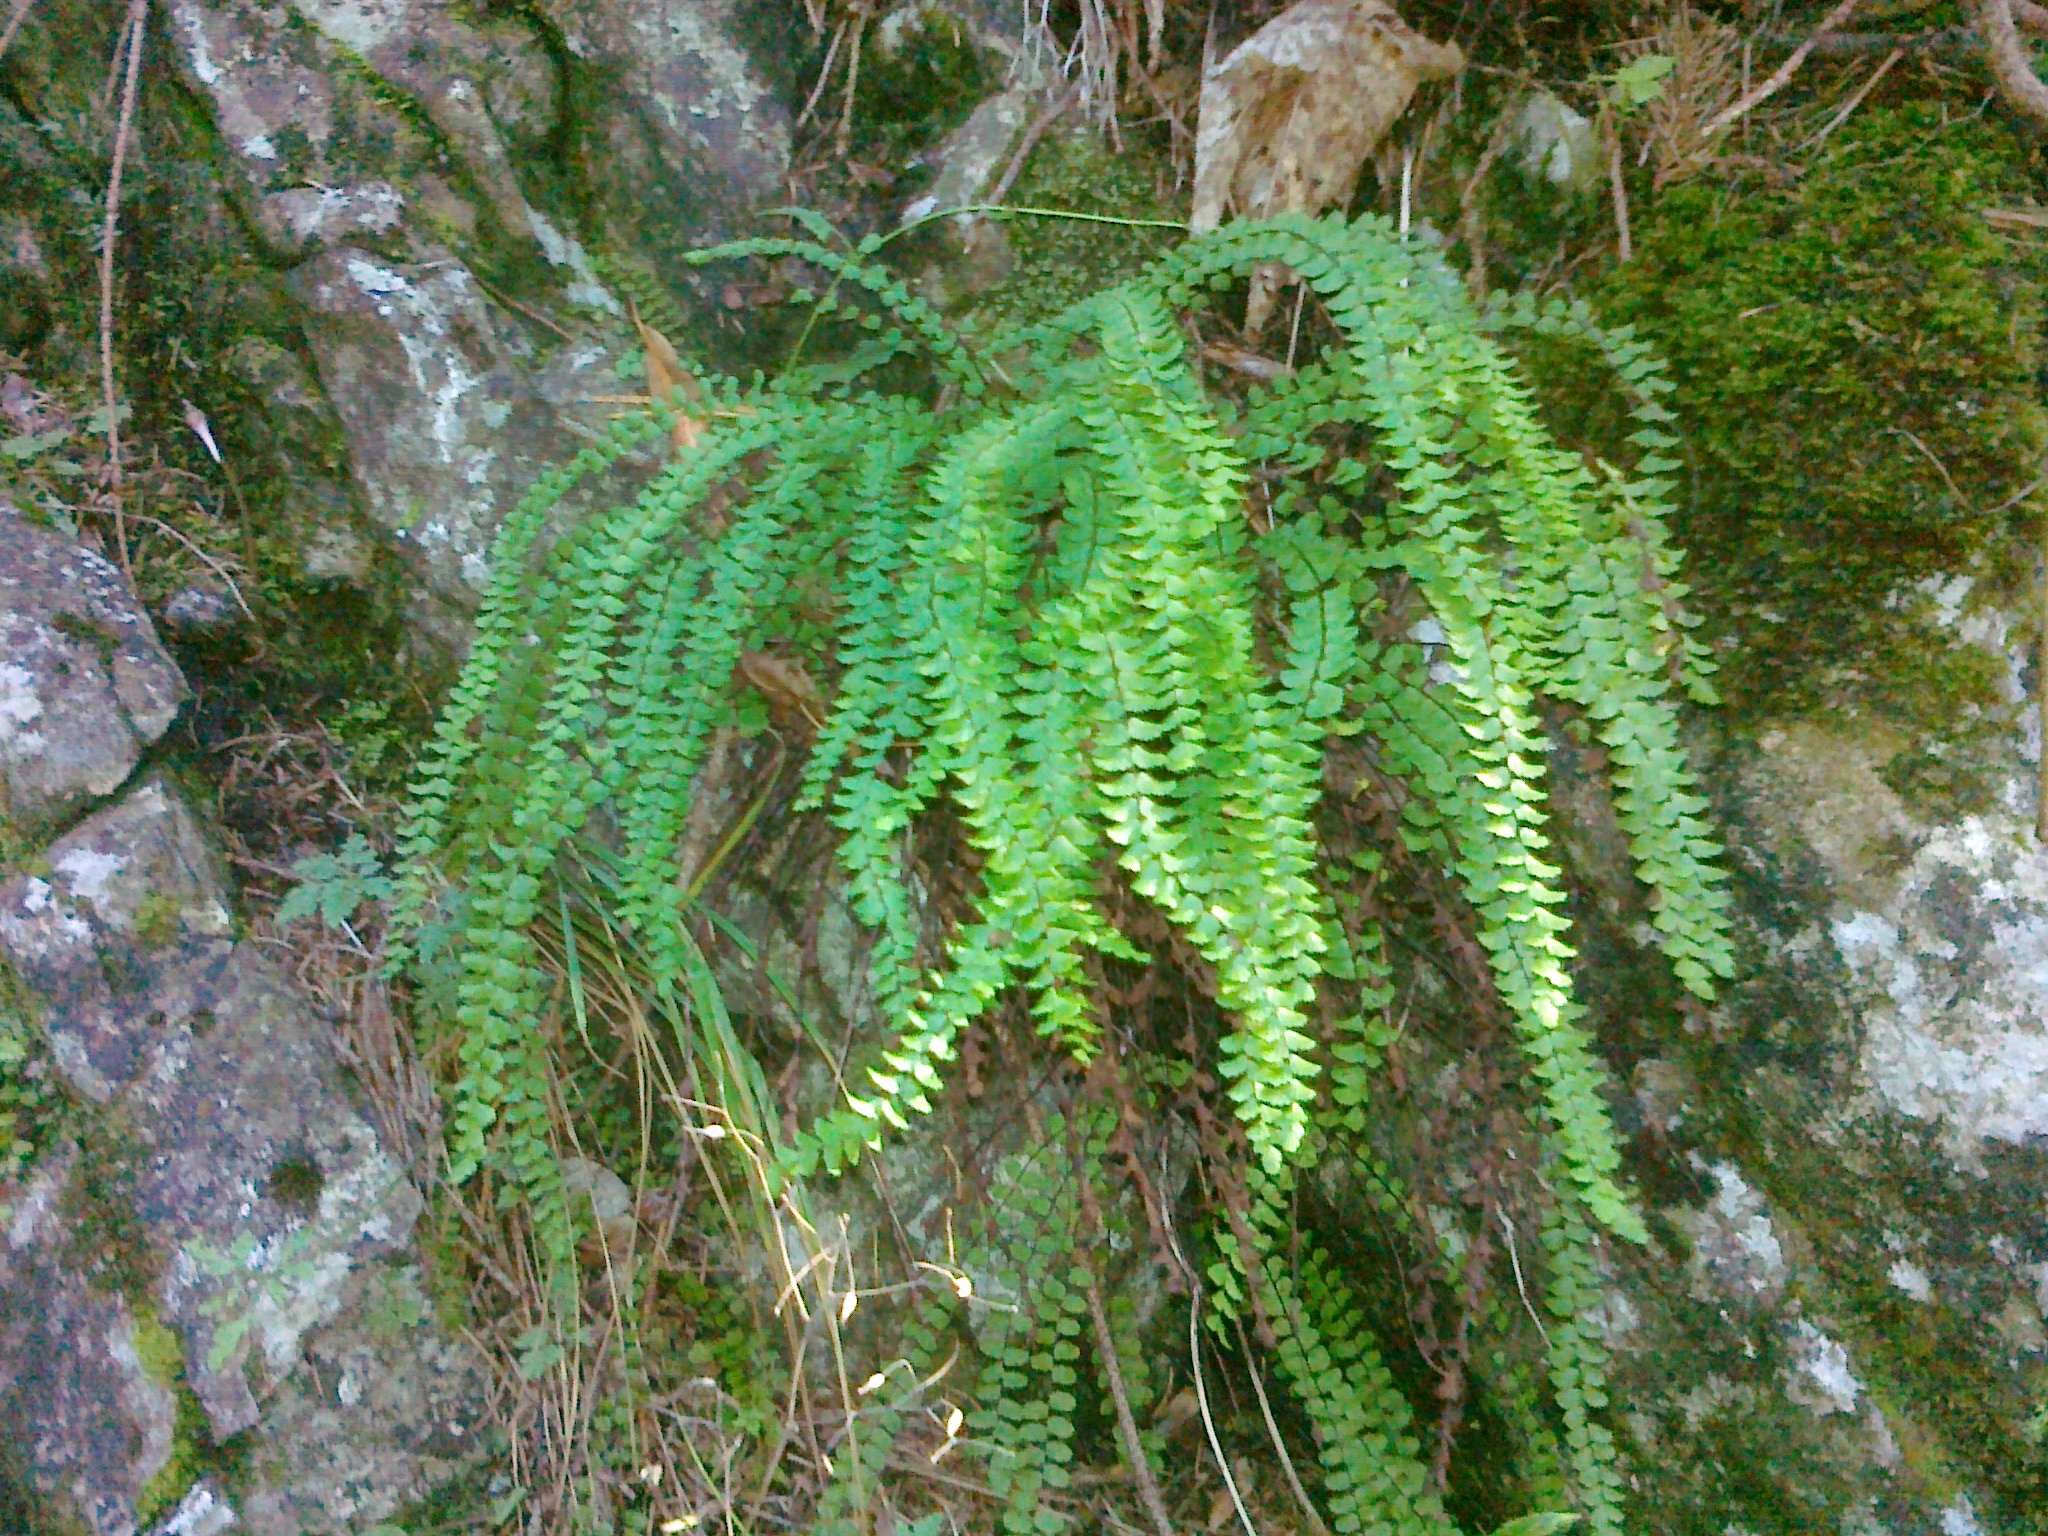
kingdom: Plantae
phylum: Tracheophyta
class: Polypodiopsida
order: Polypodiales
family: Aspleniaceae
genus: Asplenium
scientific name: Asplenium quadrivalens
